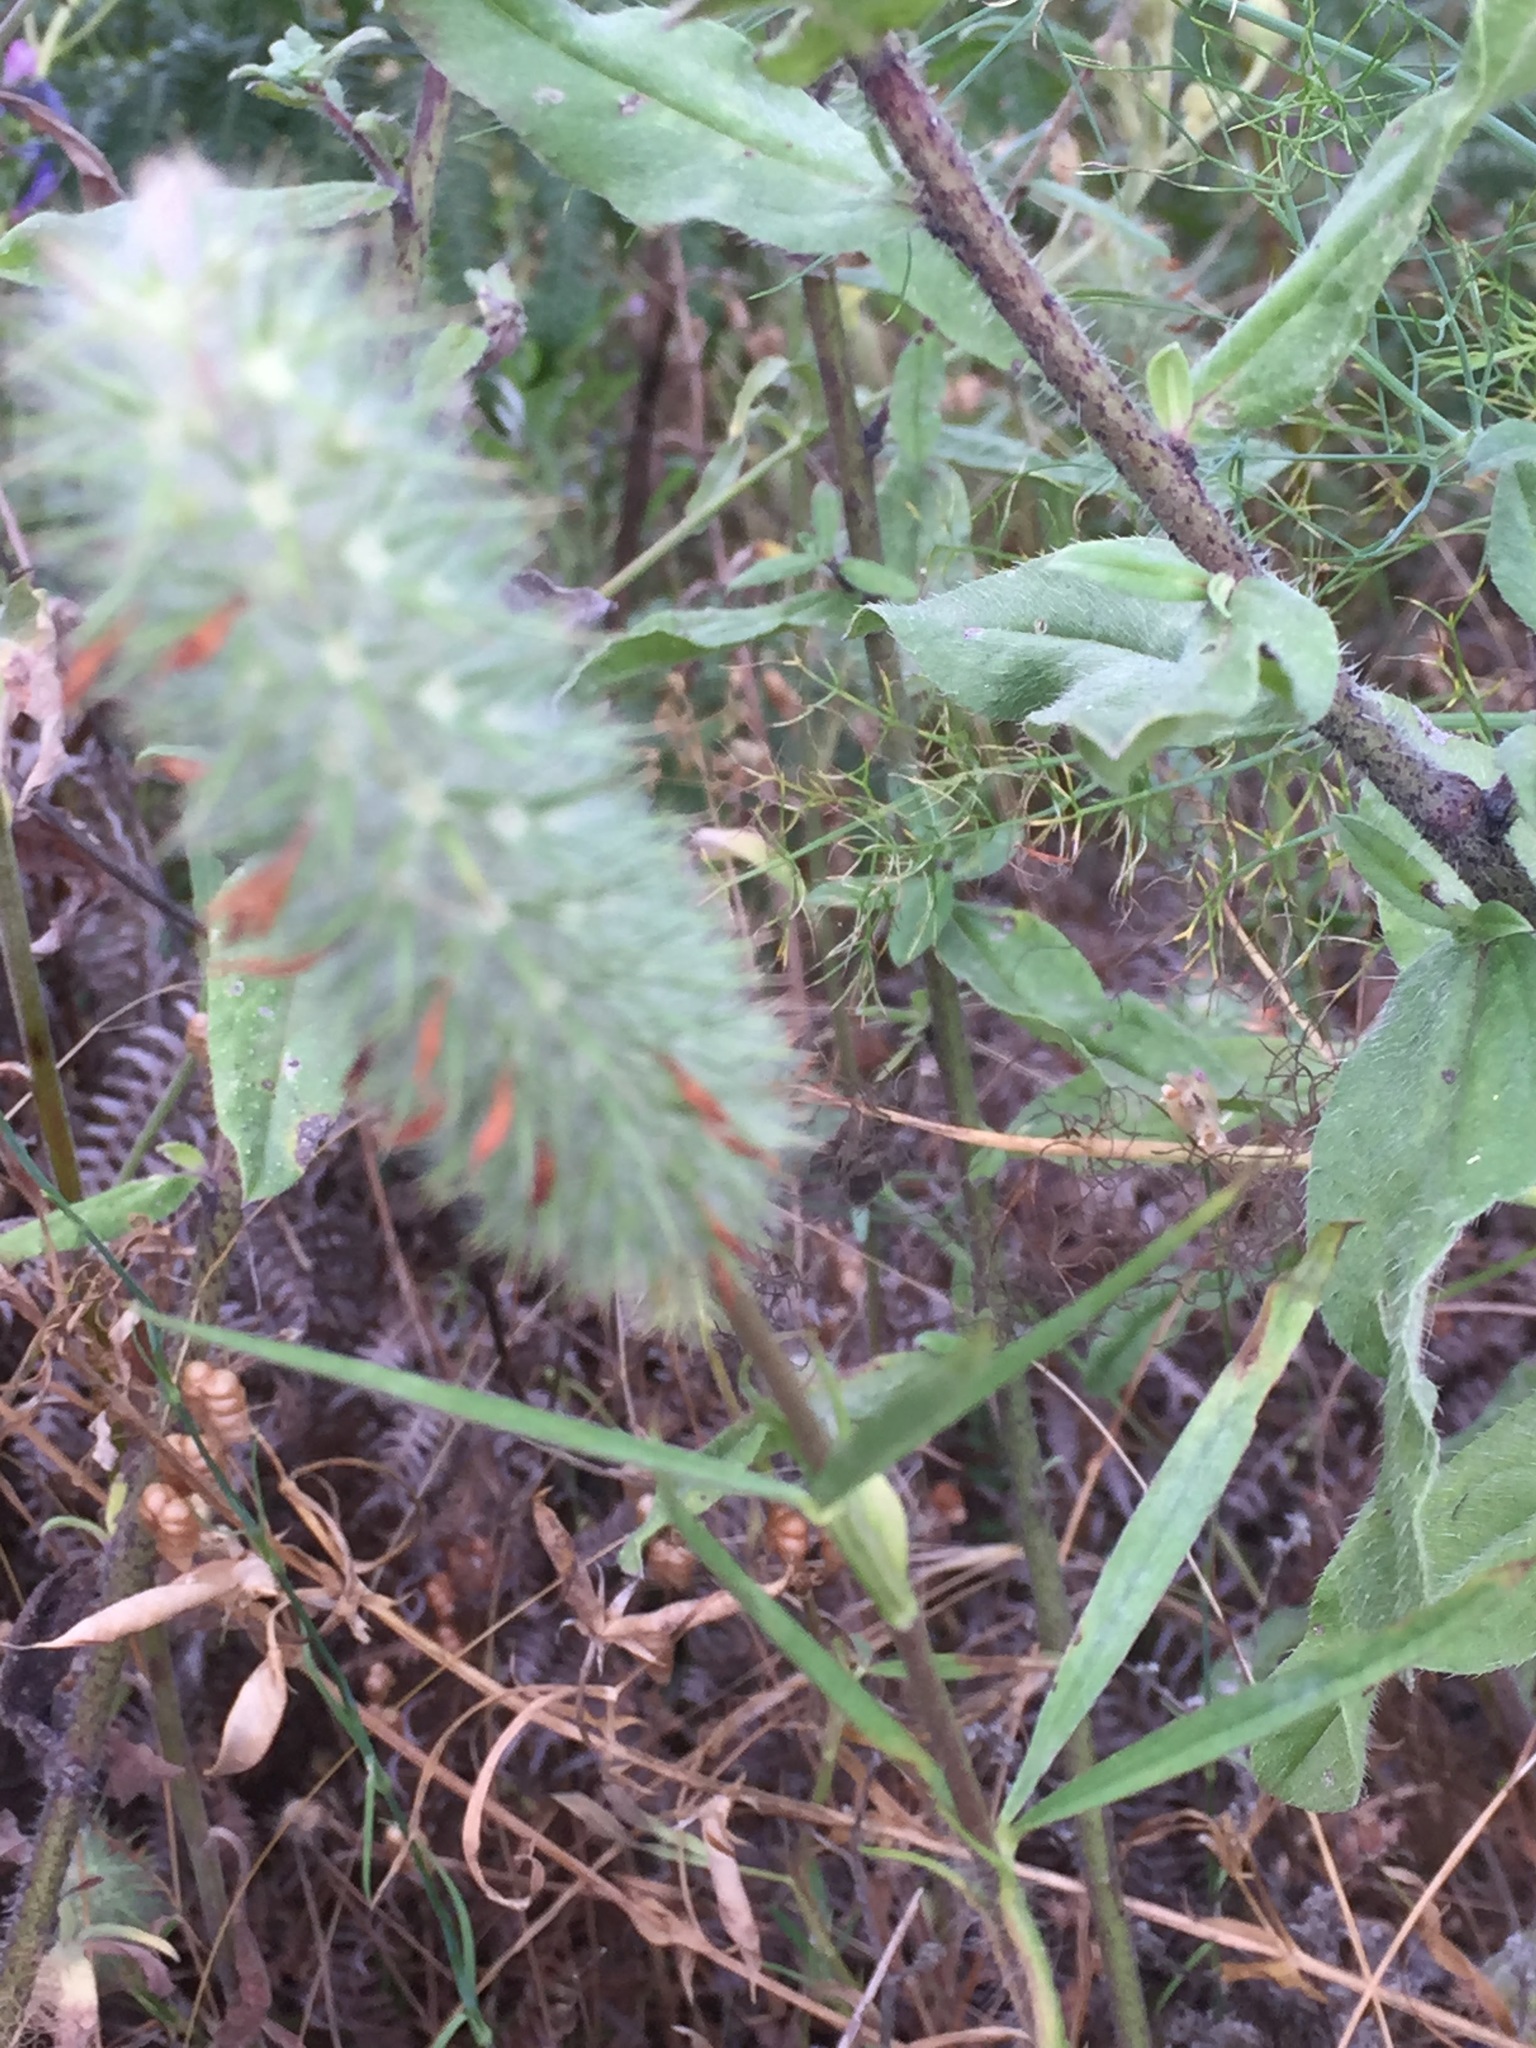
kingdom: Plantae
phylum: Tracheophyta
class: Magnoliopsida
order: Fabales
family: Fabaceae
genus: Trifolium
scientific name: Trifolium angustifolium
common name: Narrow clover
